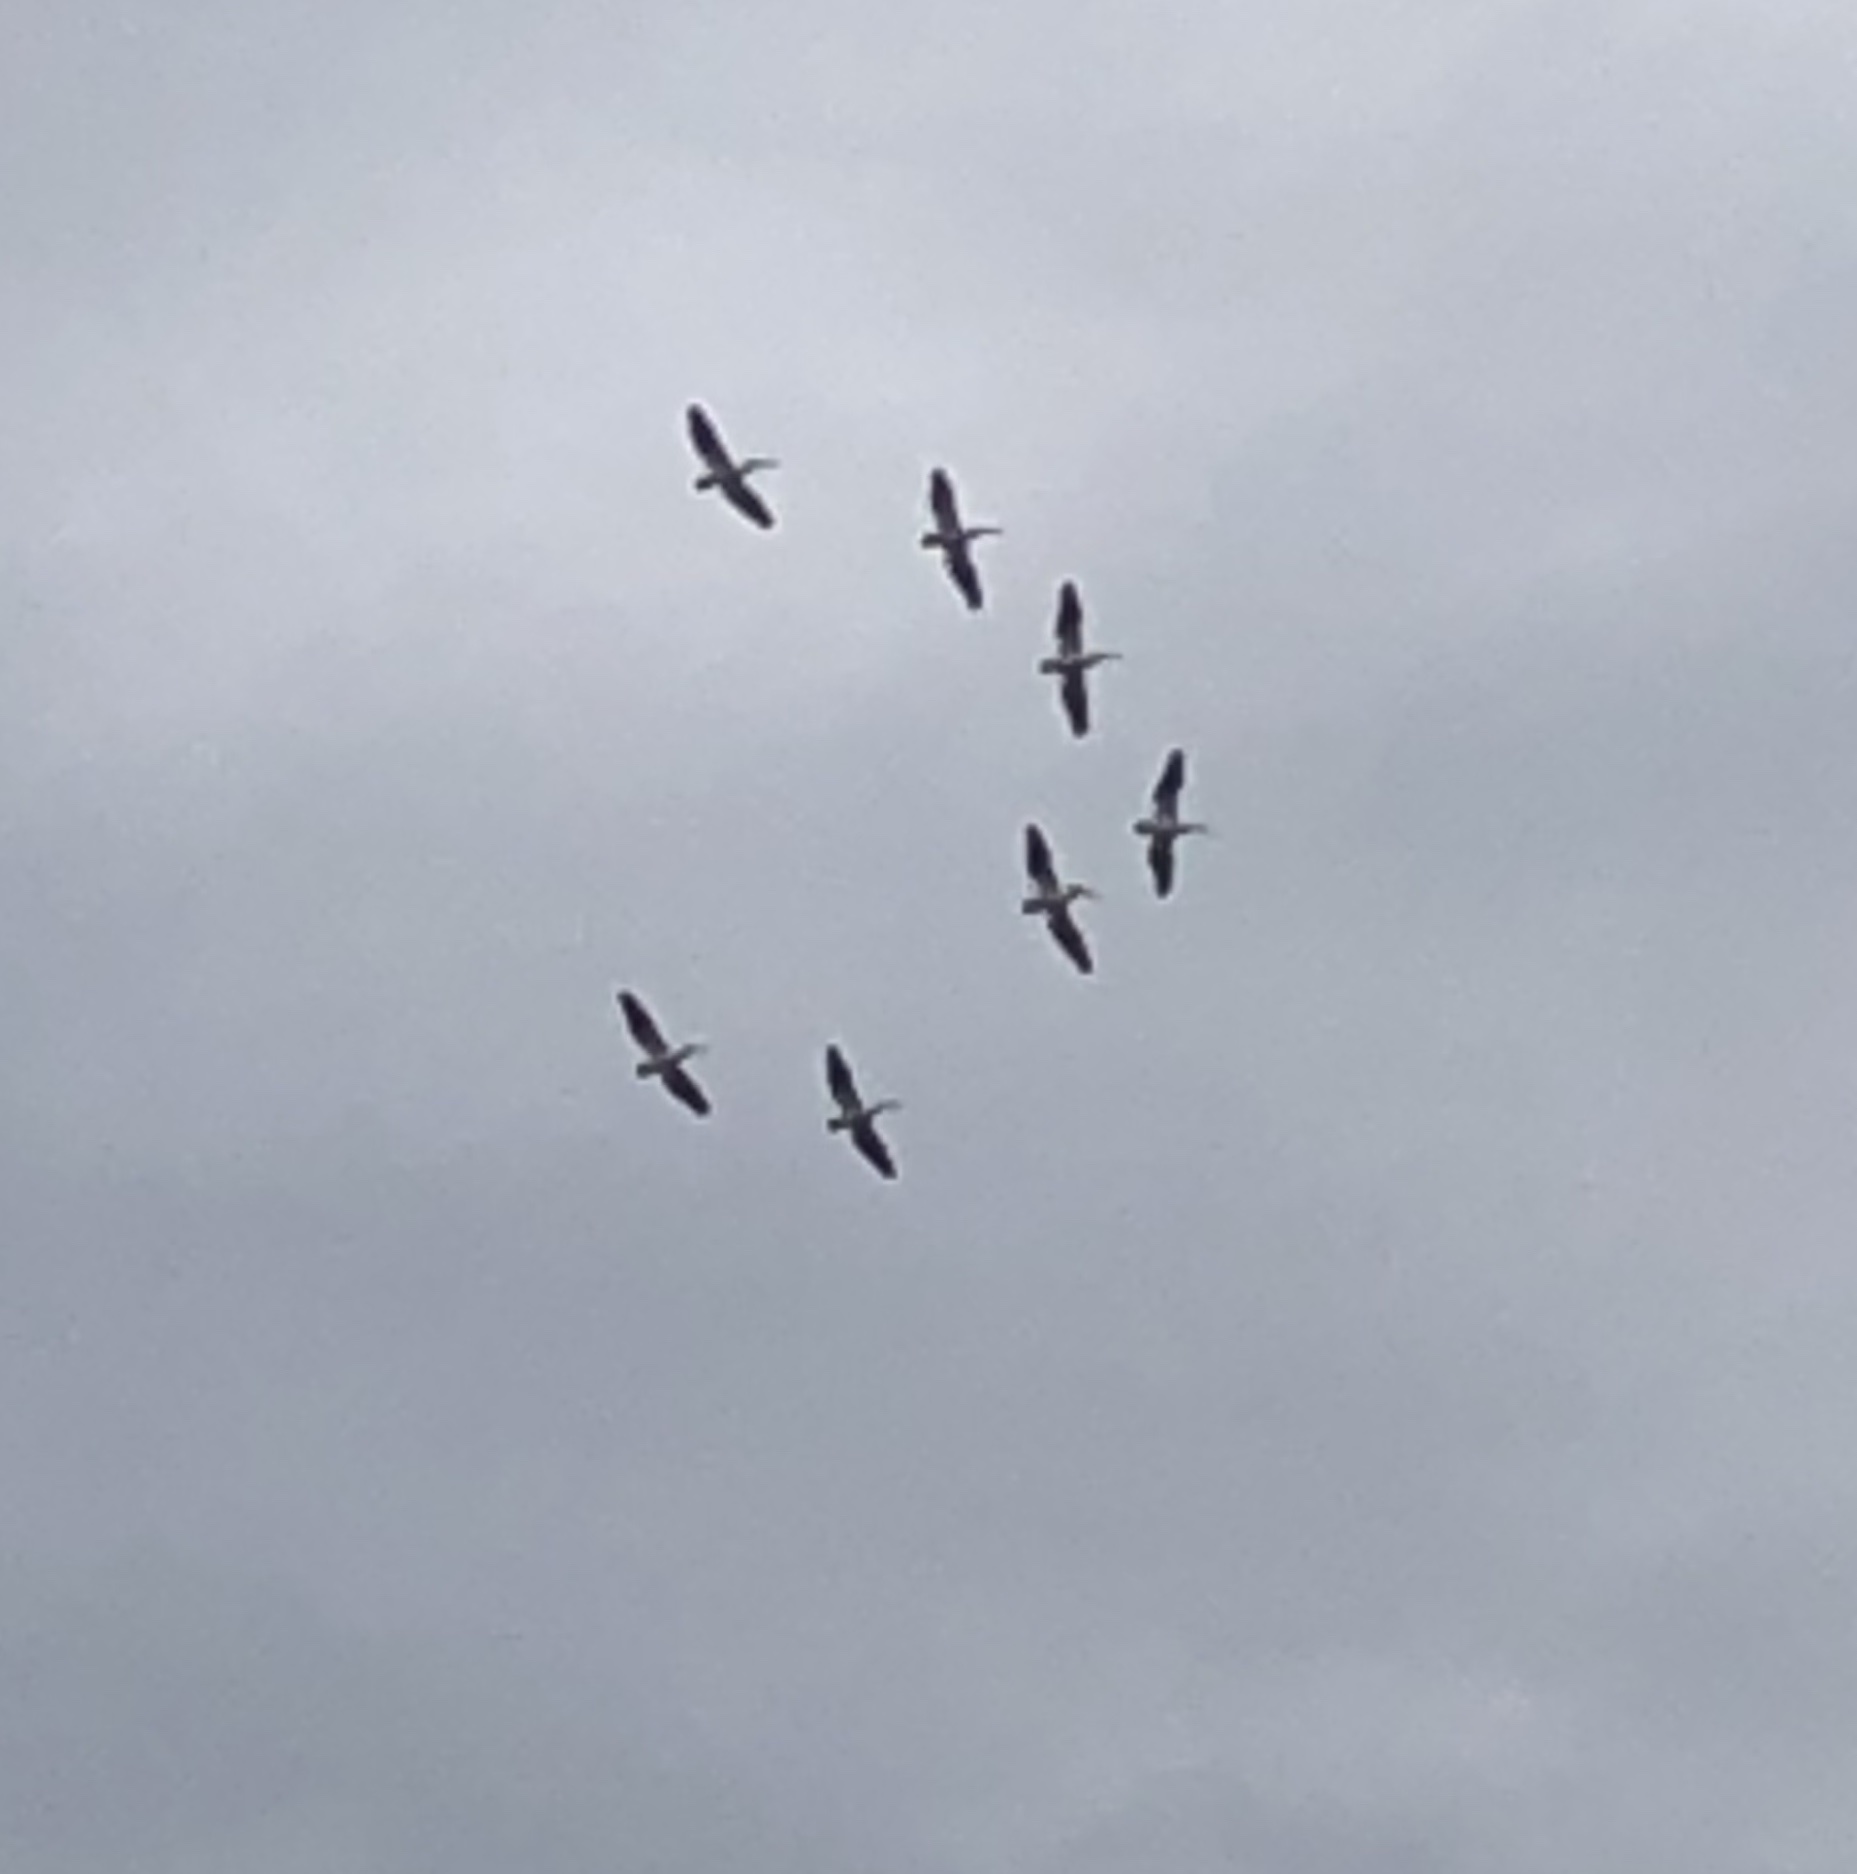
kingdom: Animalia
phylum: Chordata
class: Aves
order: Pelecaniformes
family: Pelecanidae
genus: Pelecanus
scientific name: Pelecanus erythrorhynchos
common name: American white pelican
